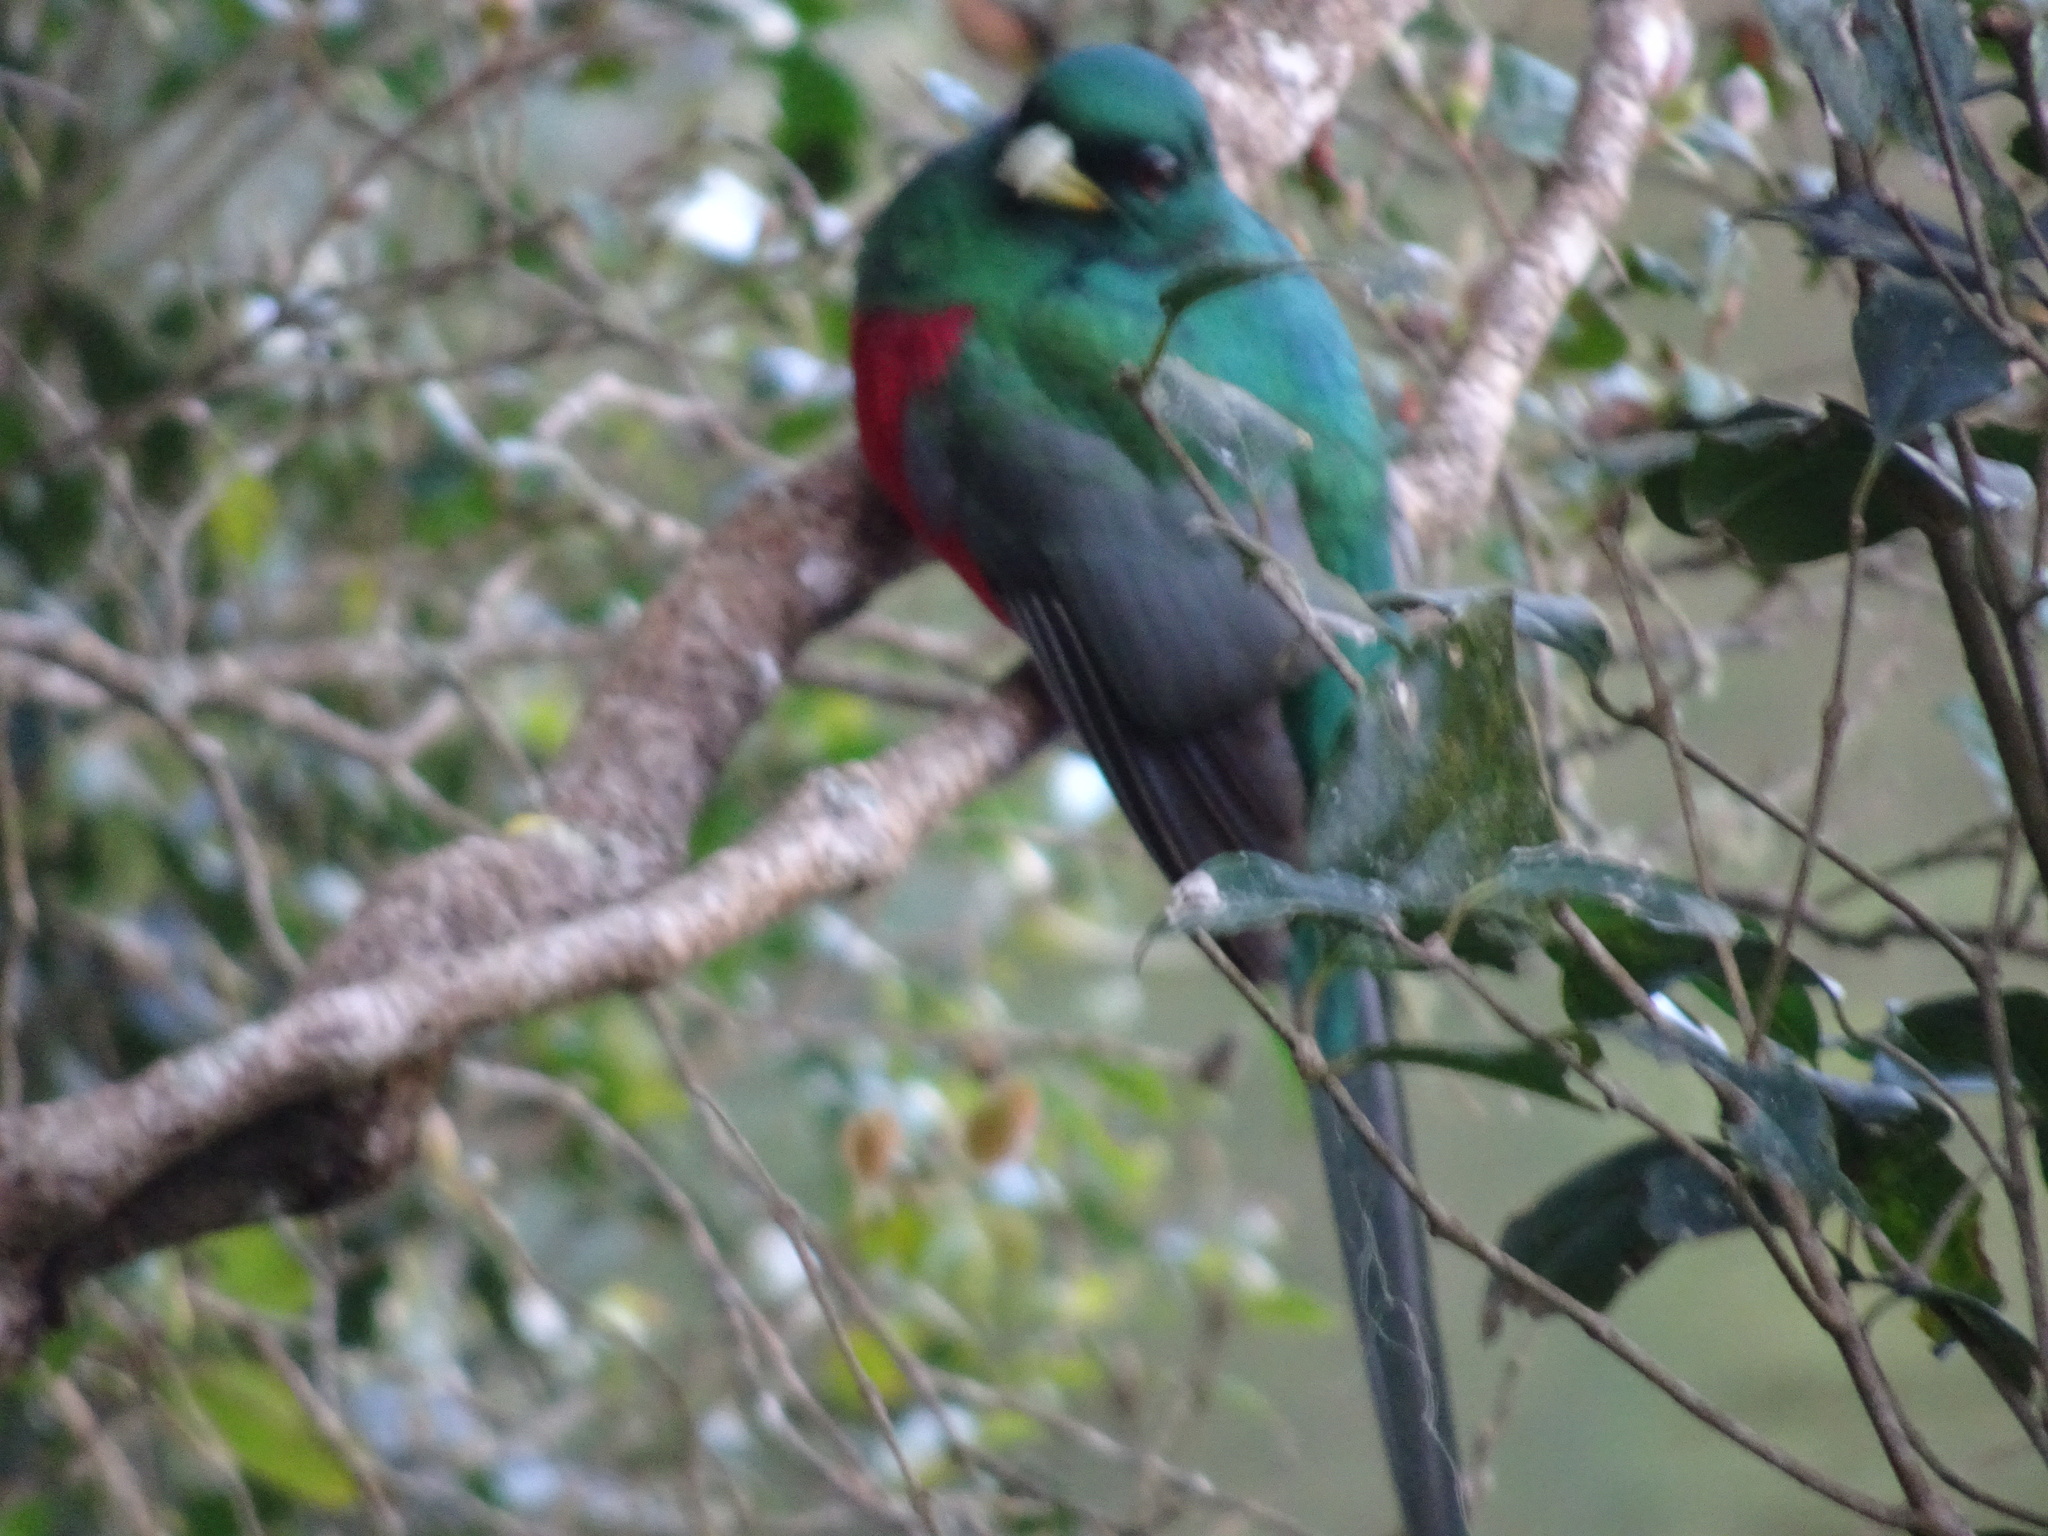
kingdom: Animalia
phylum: Chordata
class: Aves
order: Trogoniformes
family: Trogonidae
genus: Apaloderma
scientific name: Apaloderma narina
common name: Narina trogon
